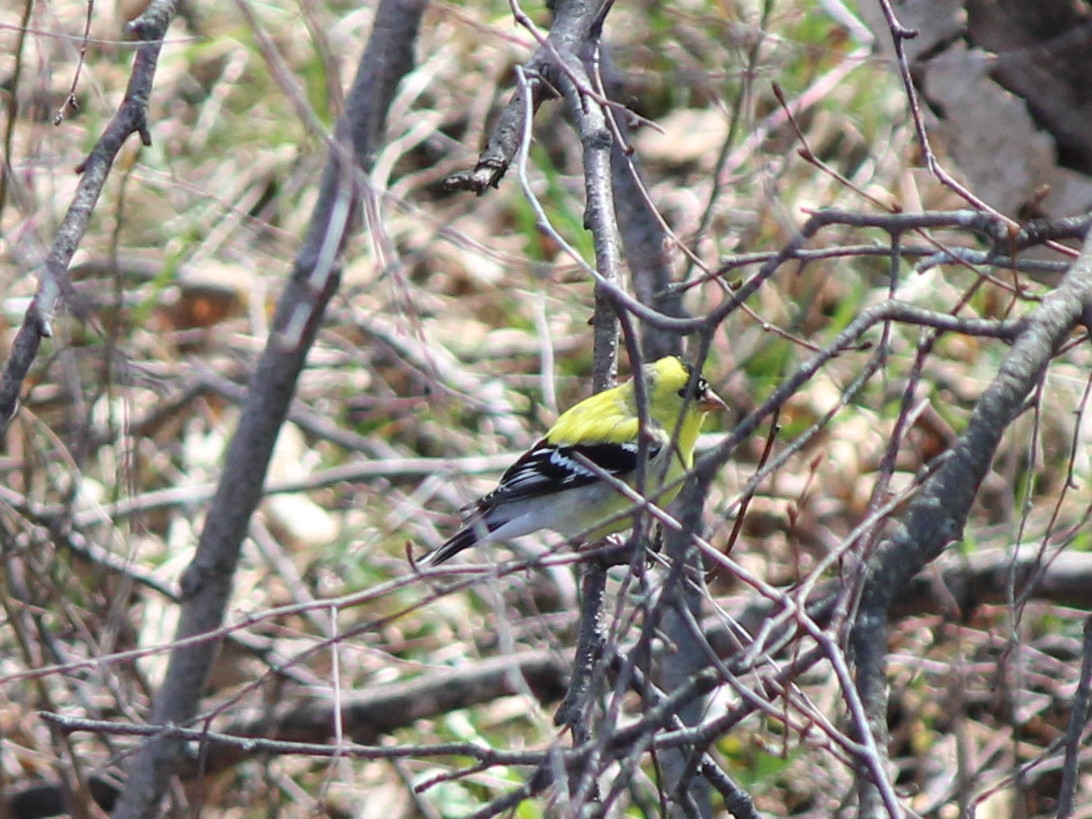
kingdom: Animalia
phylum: Chordata
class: Aves
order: Passeriformes
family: Fringillidae
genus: Spinus
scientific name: Spinus tristis
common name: American goldfinch
